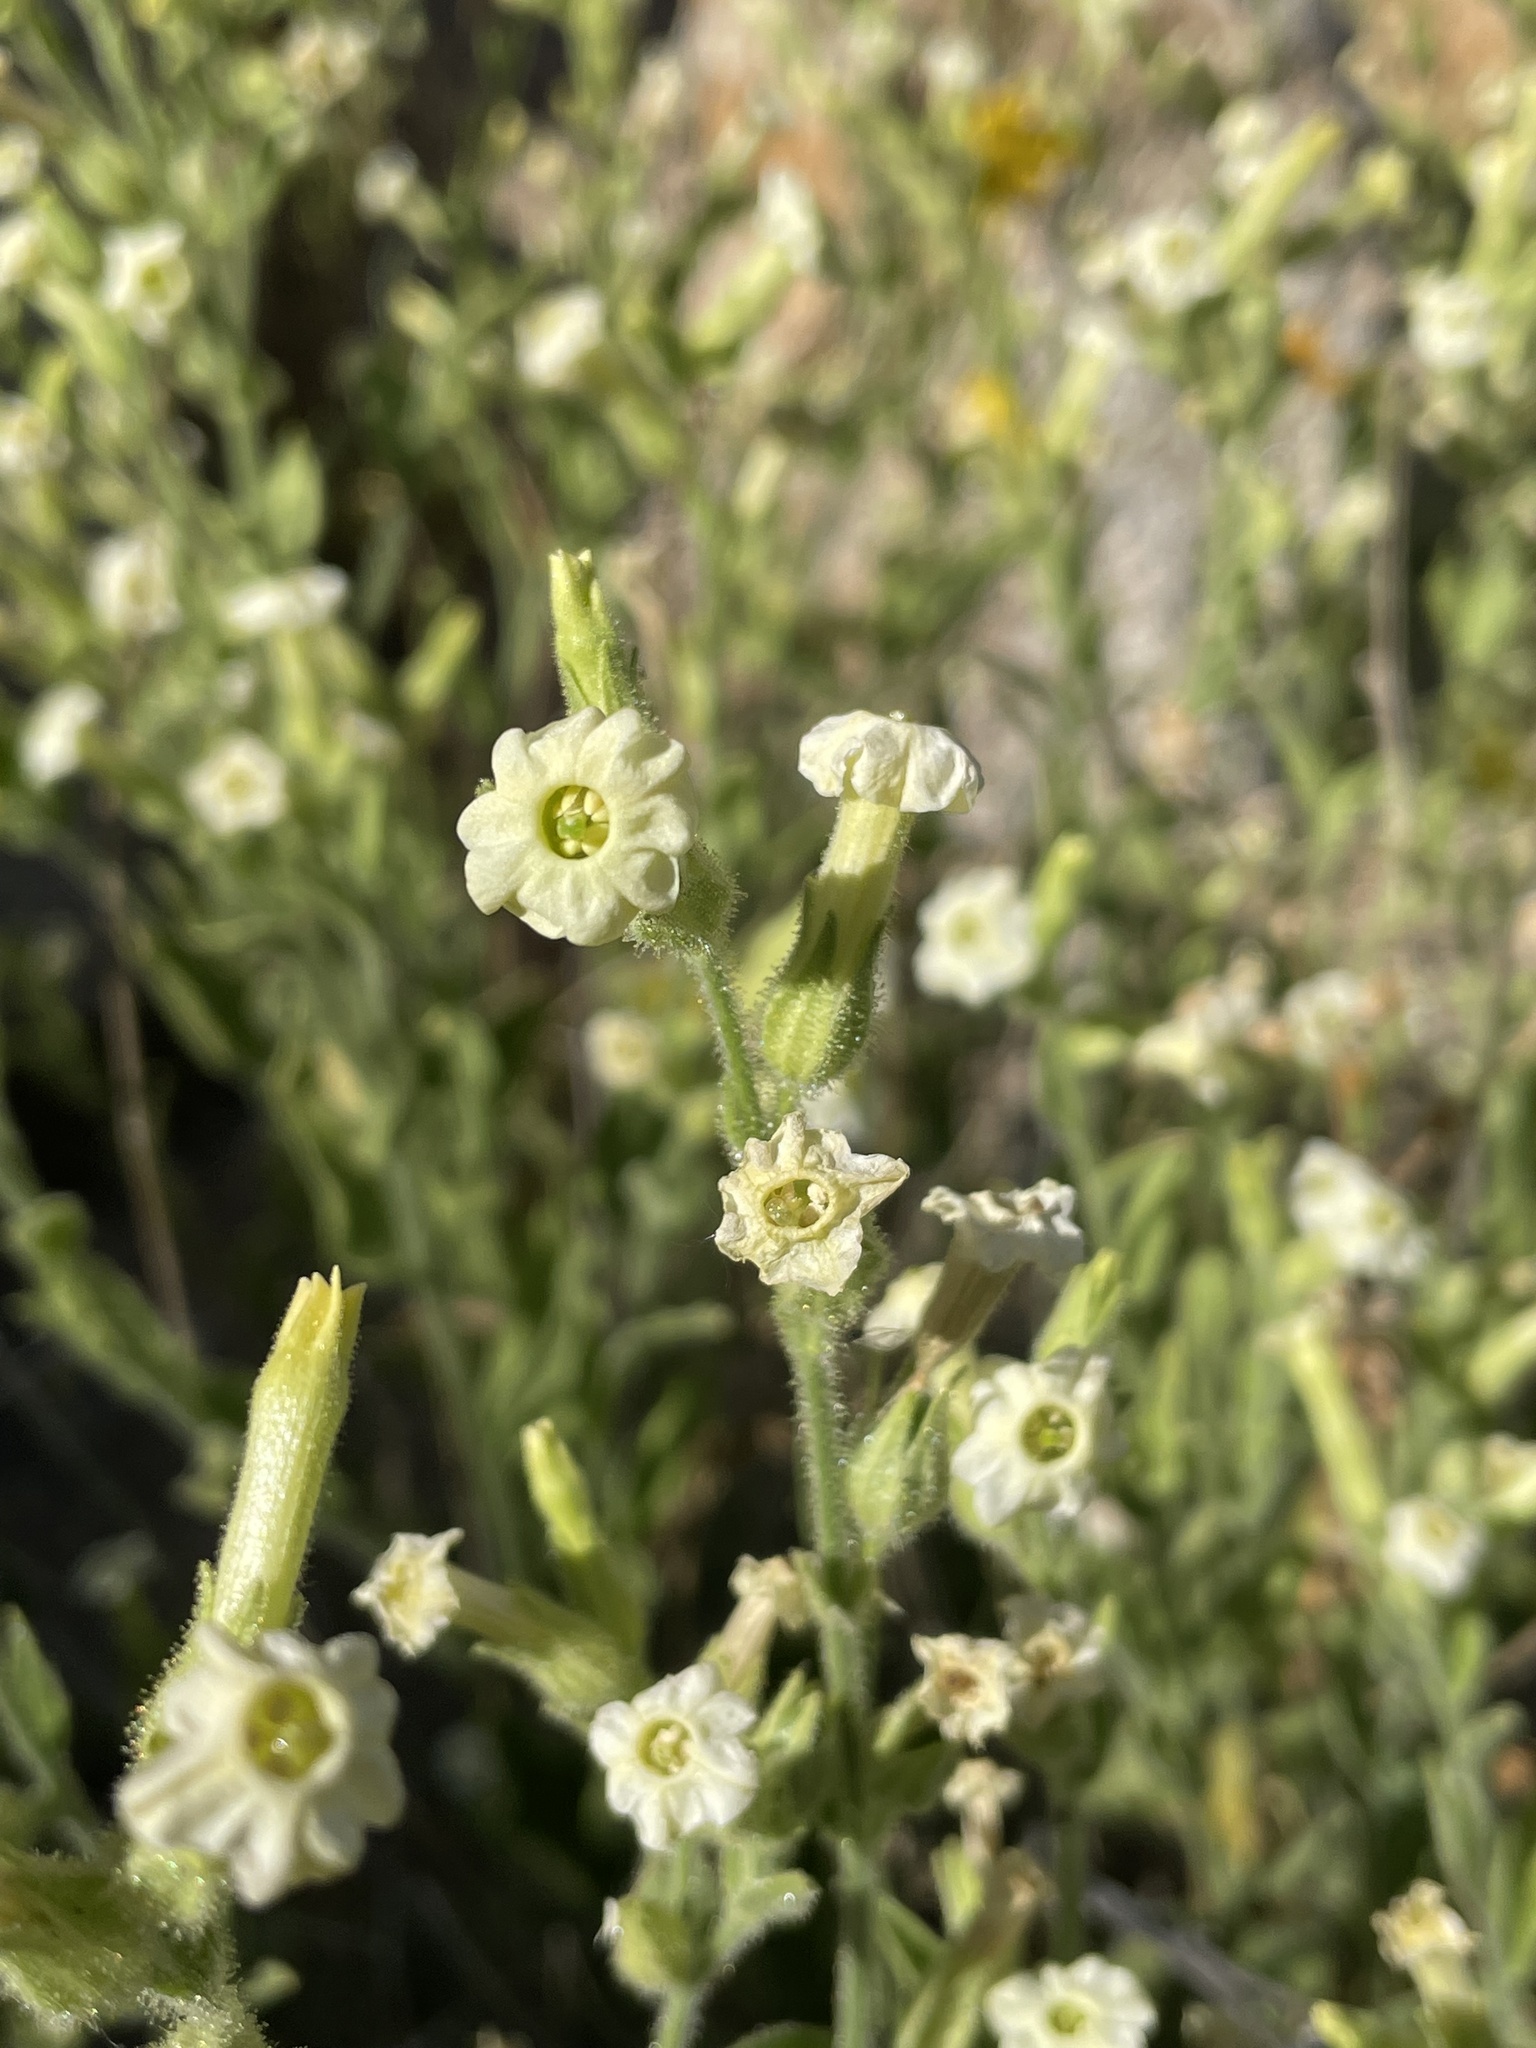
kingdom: Plantae
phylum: Tracheophyta
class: Magnoliopsida
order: Solanales
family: Solanaceae
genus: Nicotiana
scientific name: Nicotiana obtusifolia
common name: Desert tobacco
